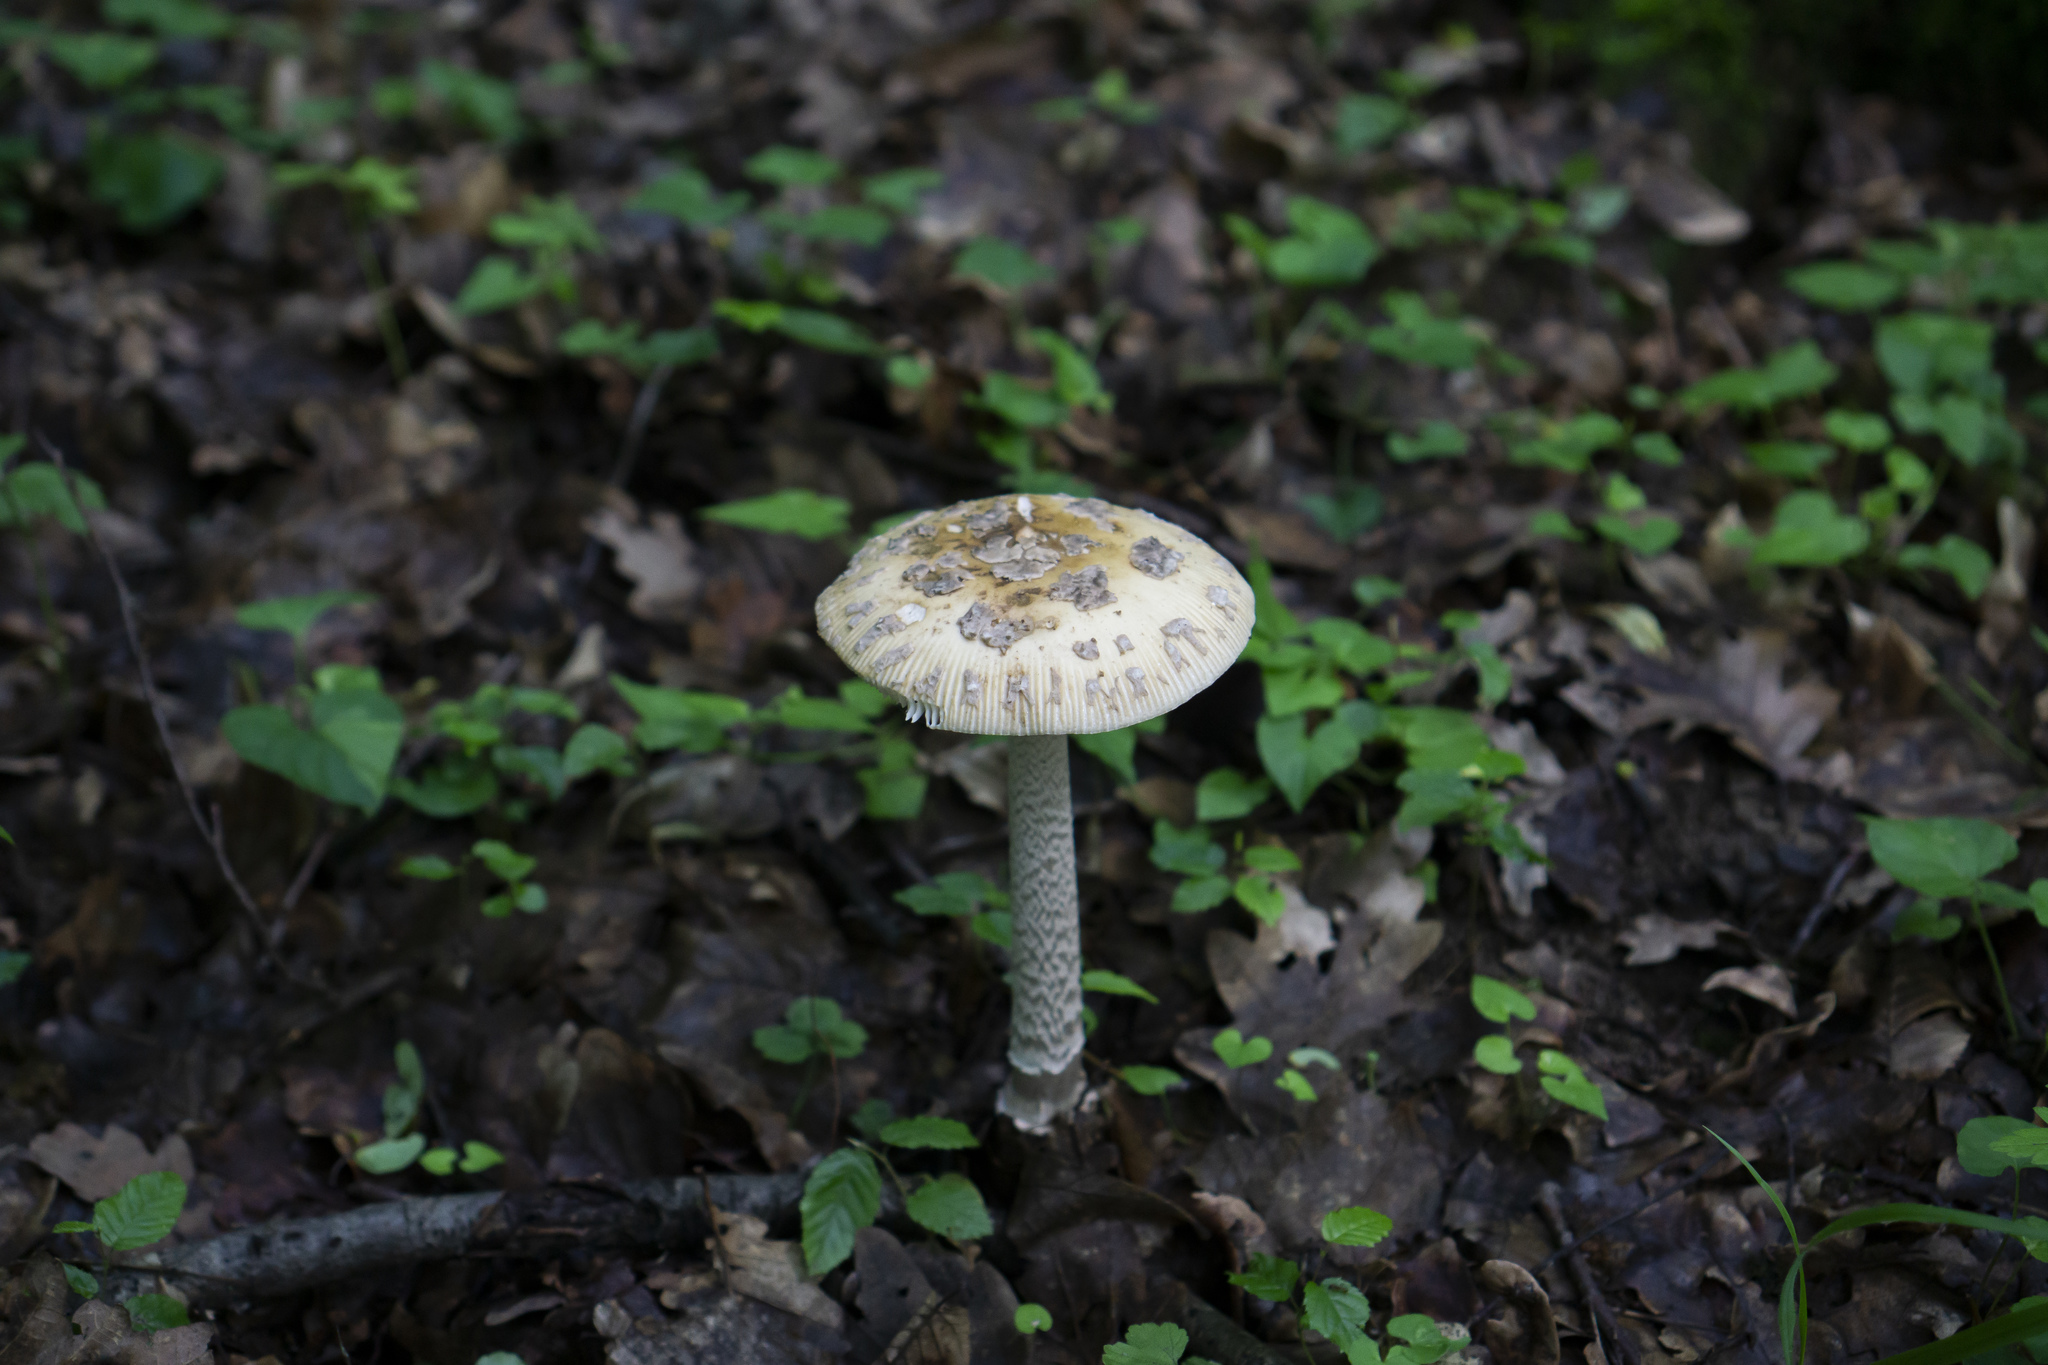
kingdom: Fungi
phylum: Basidiomycota
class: Agaricomycetes
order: Agaricales
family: Amanitaceae
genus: Amanita
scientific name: Amanita ceciliae
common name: Snakeskin grisette
